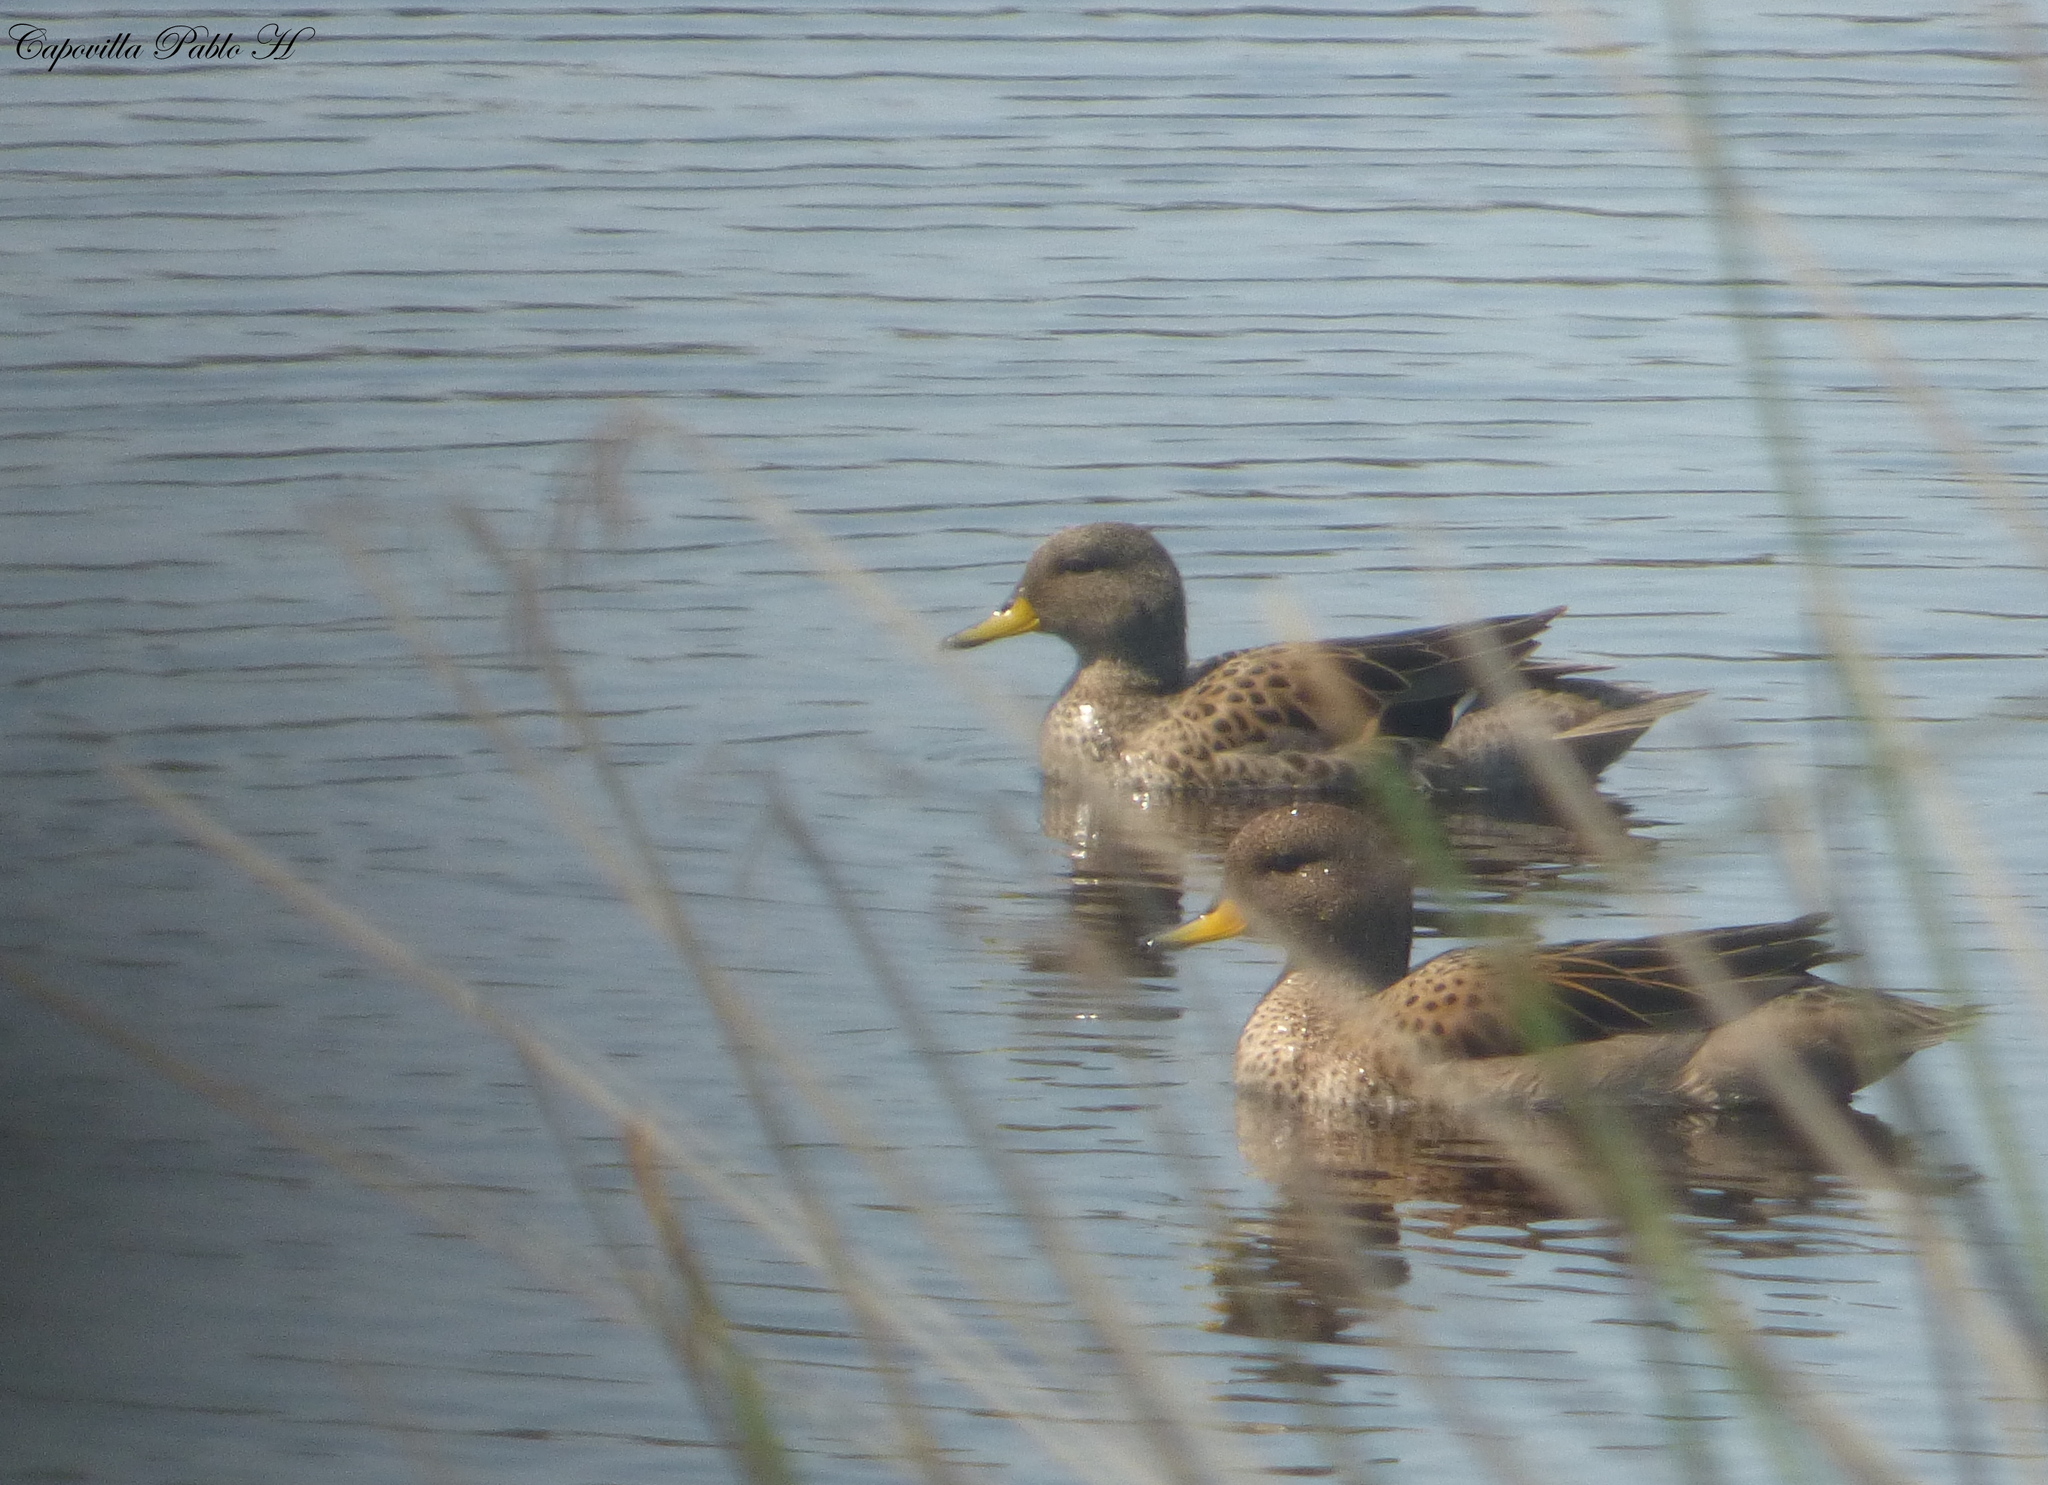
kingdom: Animalia
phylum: Chordata
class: Aves
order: Anseriformes
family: Anatidae
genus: Anas
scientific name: Anas flavirostris
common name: Yellow-billed teal
